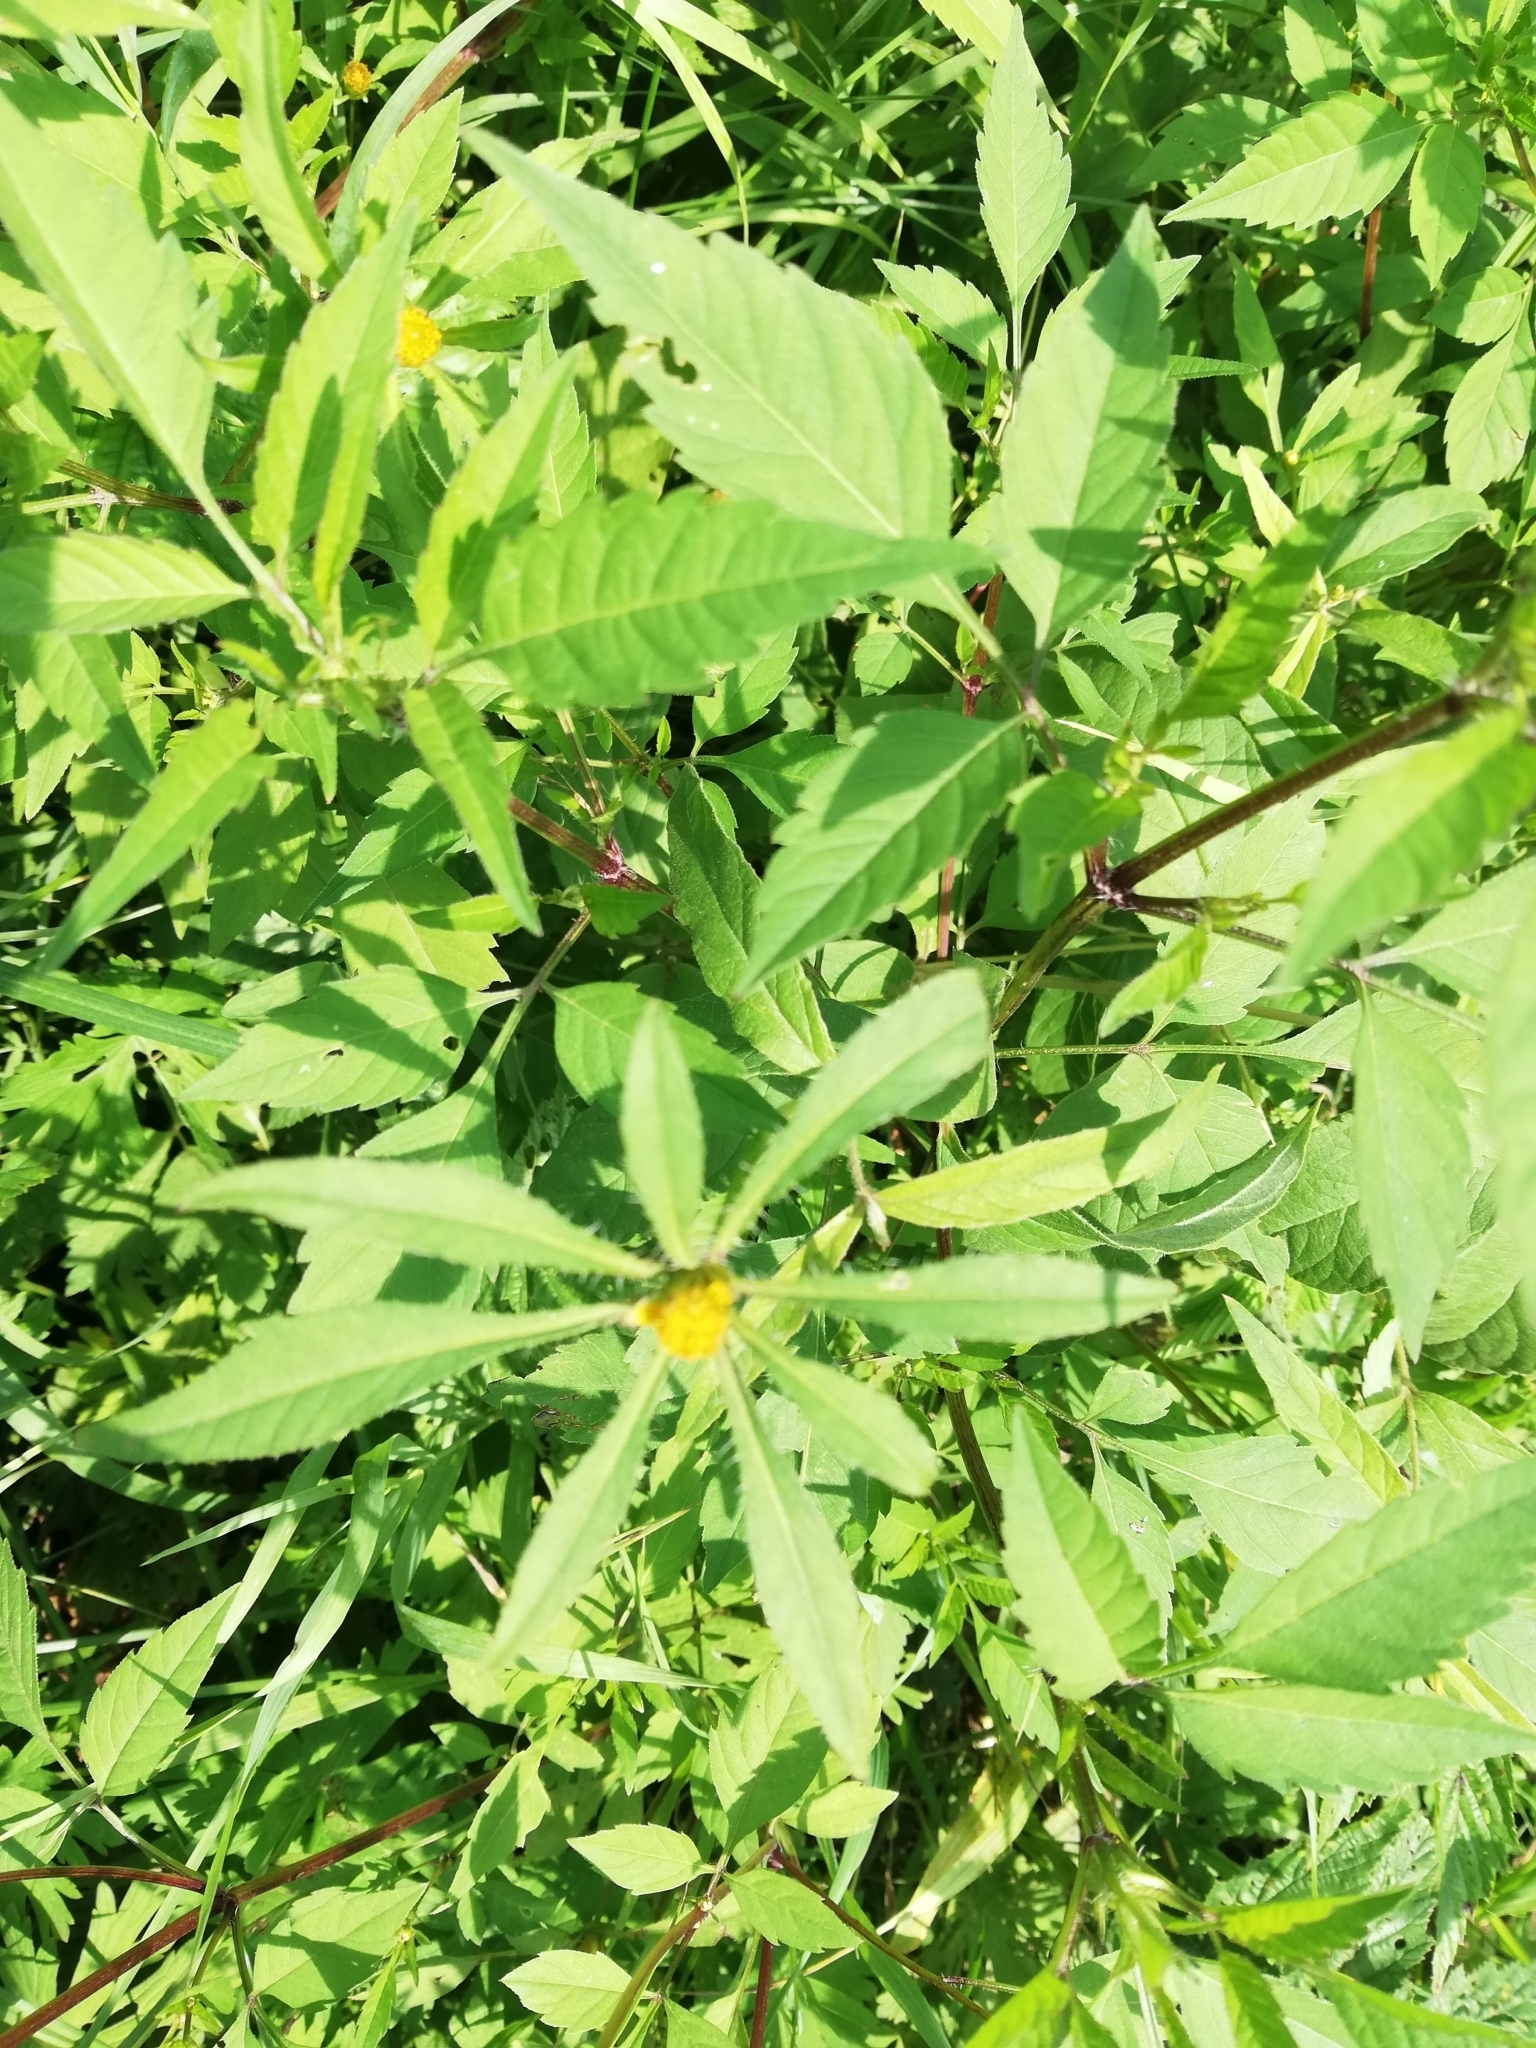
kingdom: Plantae
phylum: Tracheophyta
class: Magnoliopsida
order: Asterales
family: Asteraceae
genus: Bidens
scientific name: Bidens frondosa
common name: Beggarticks
